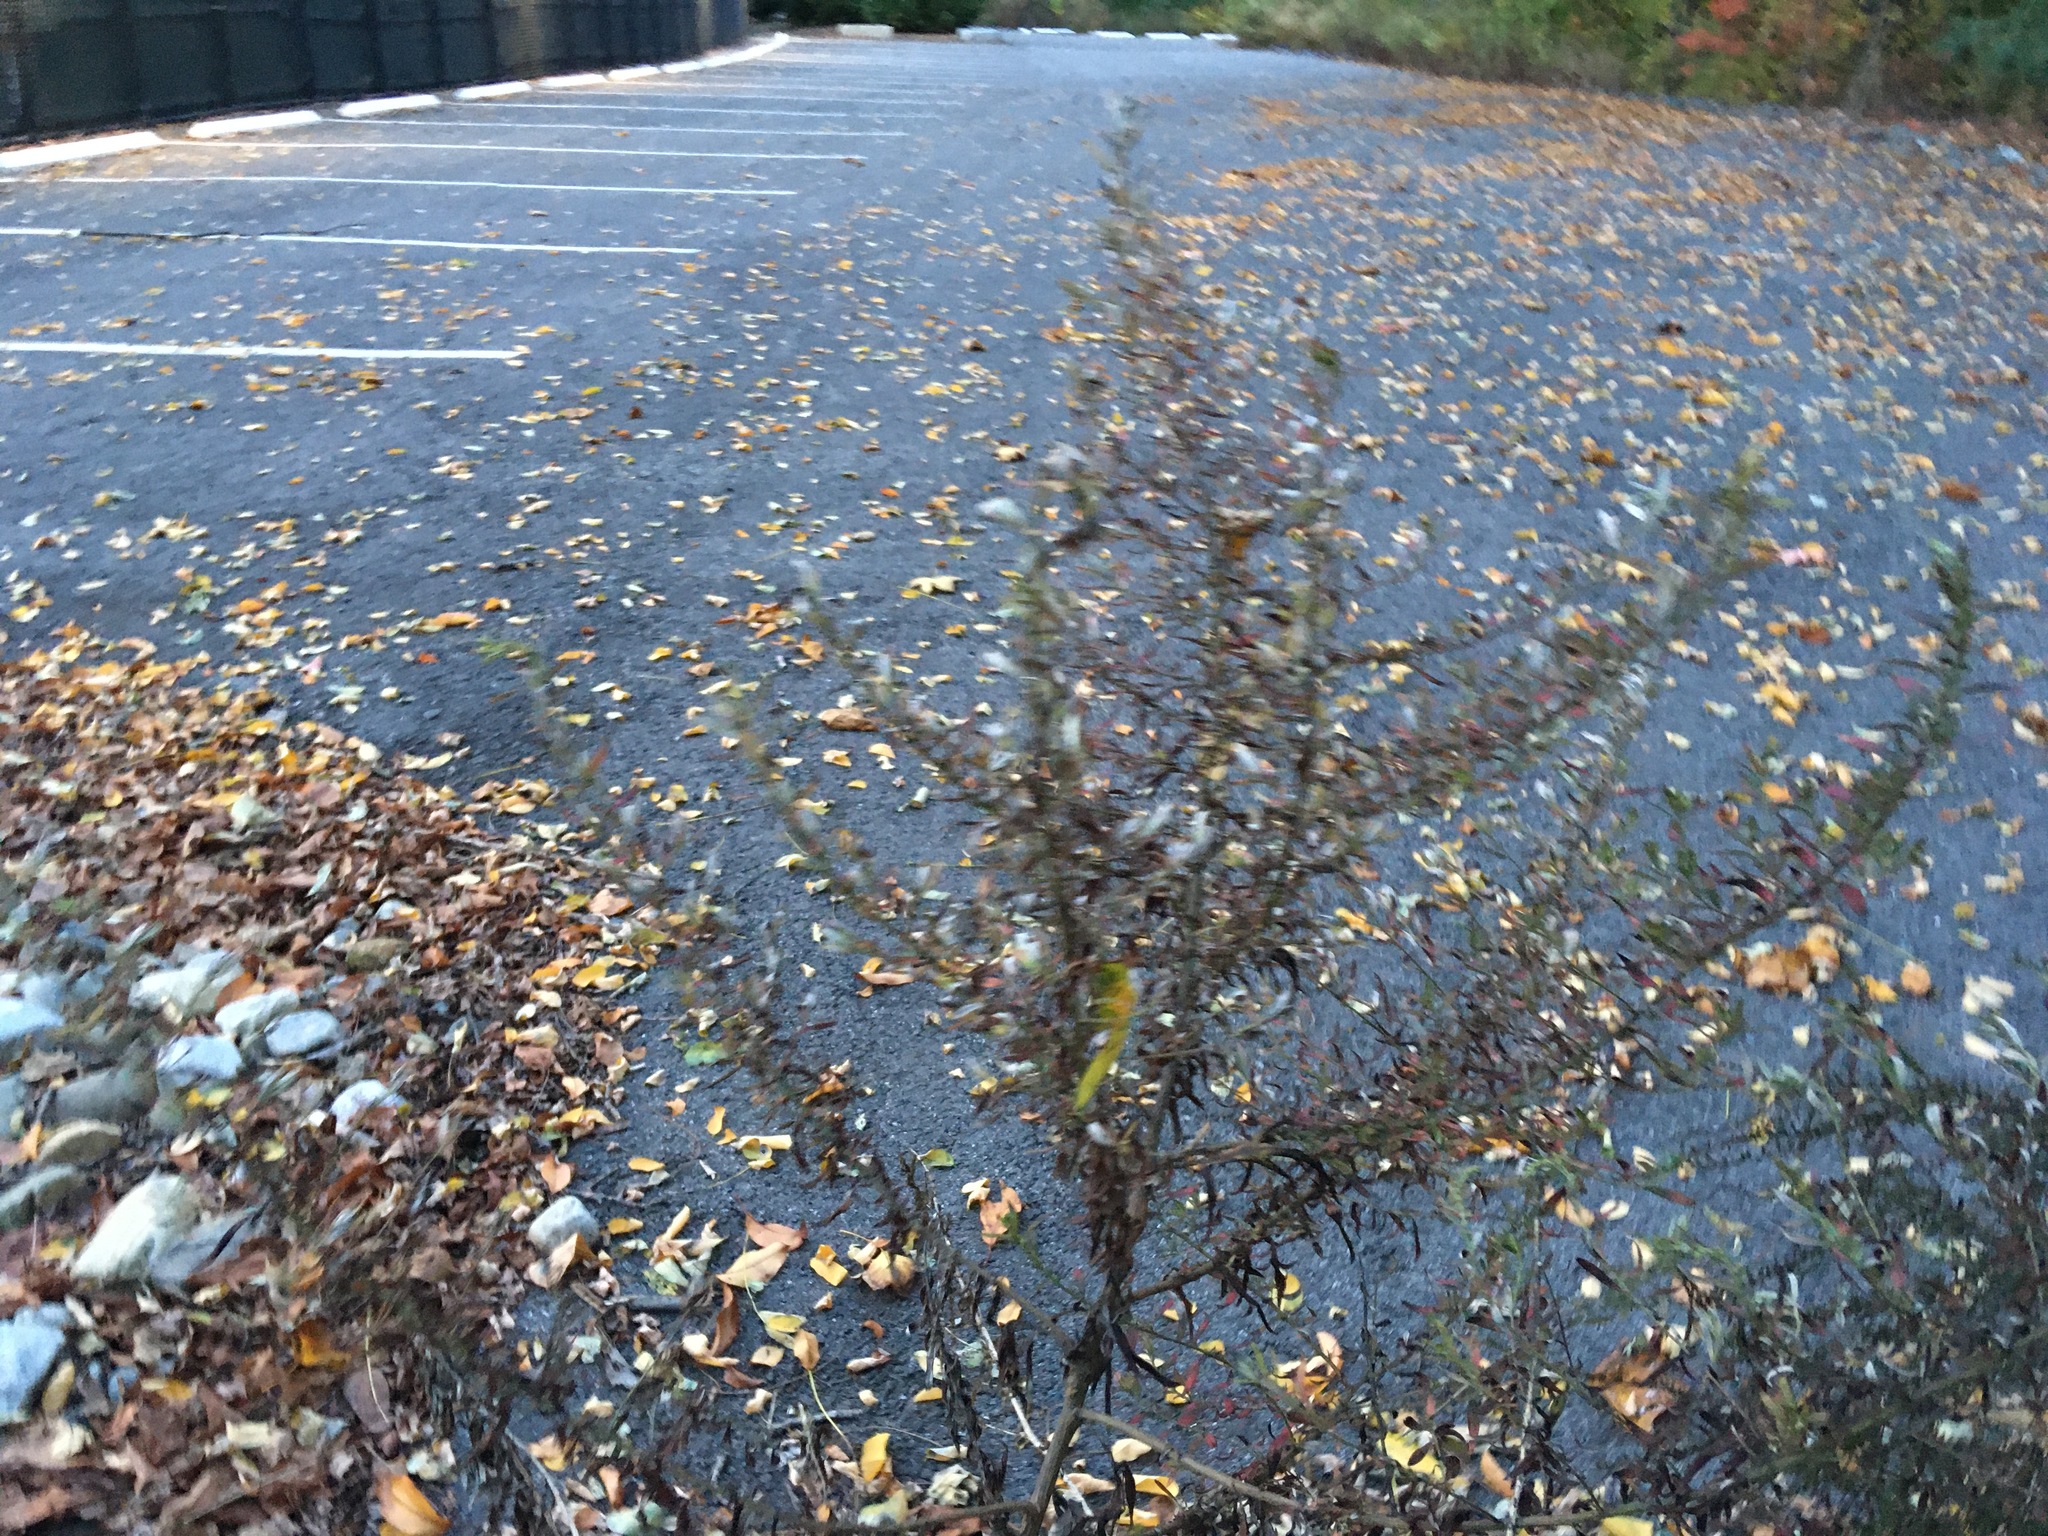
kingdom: Plantae
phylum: Tracheophyta
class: Magnoliopsida
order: Asterales
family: Asteraceae
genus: Artemisia
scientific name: Artemisia vulgaris
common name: Mugwort
